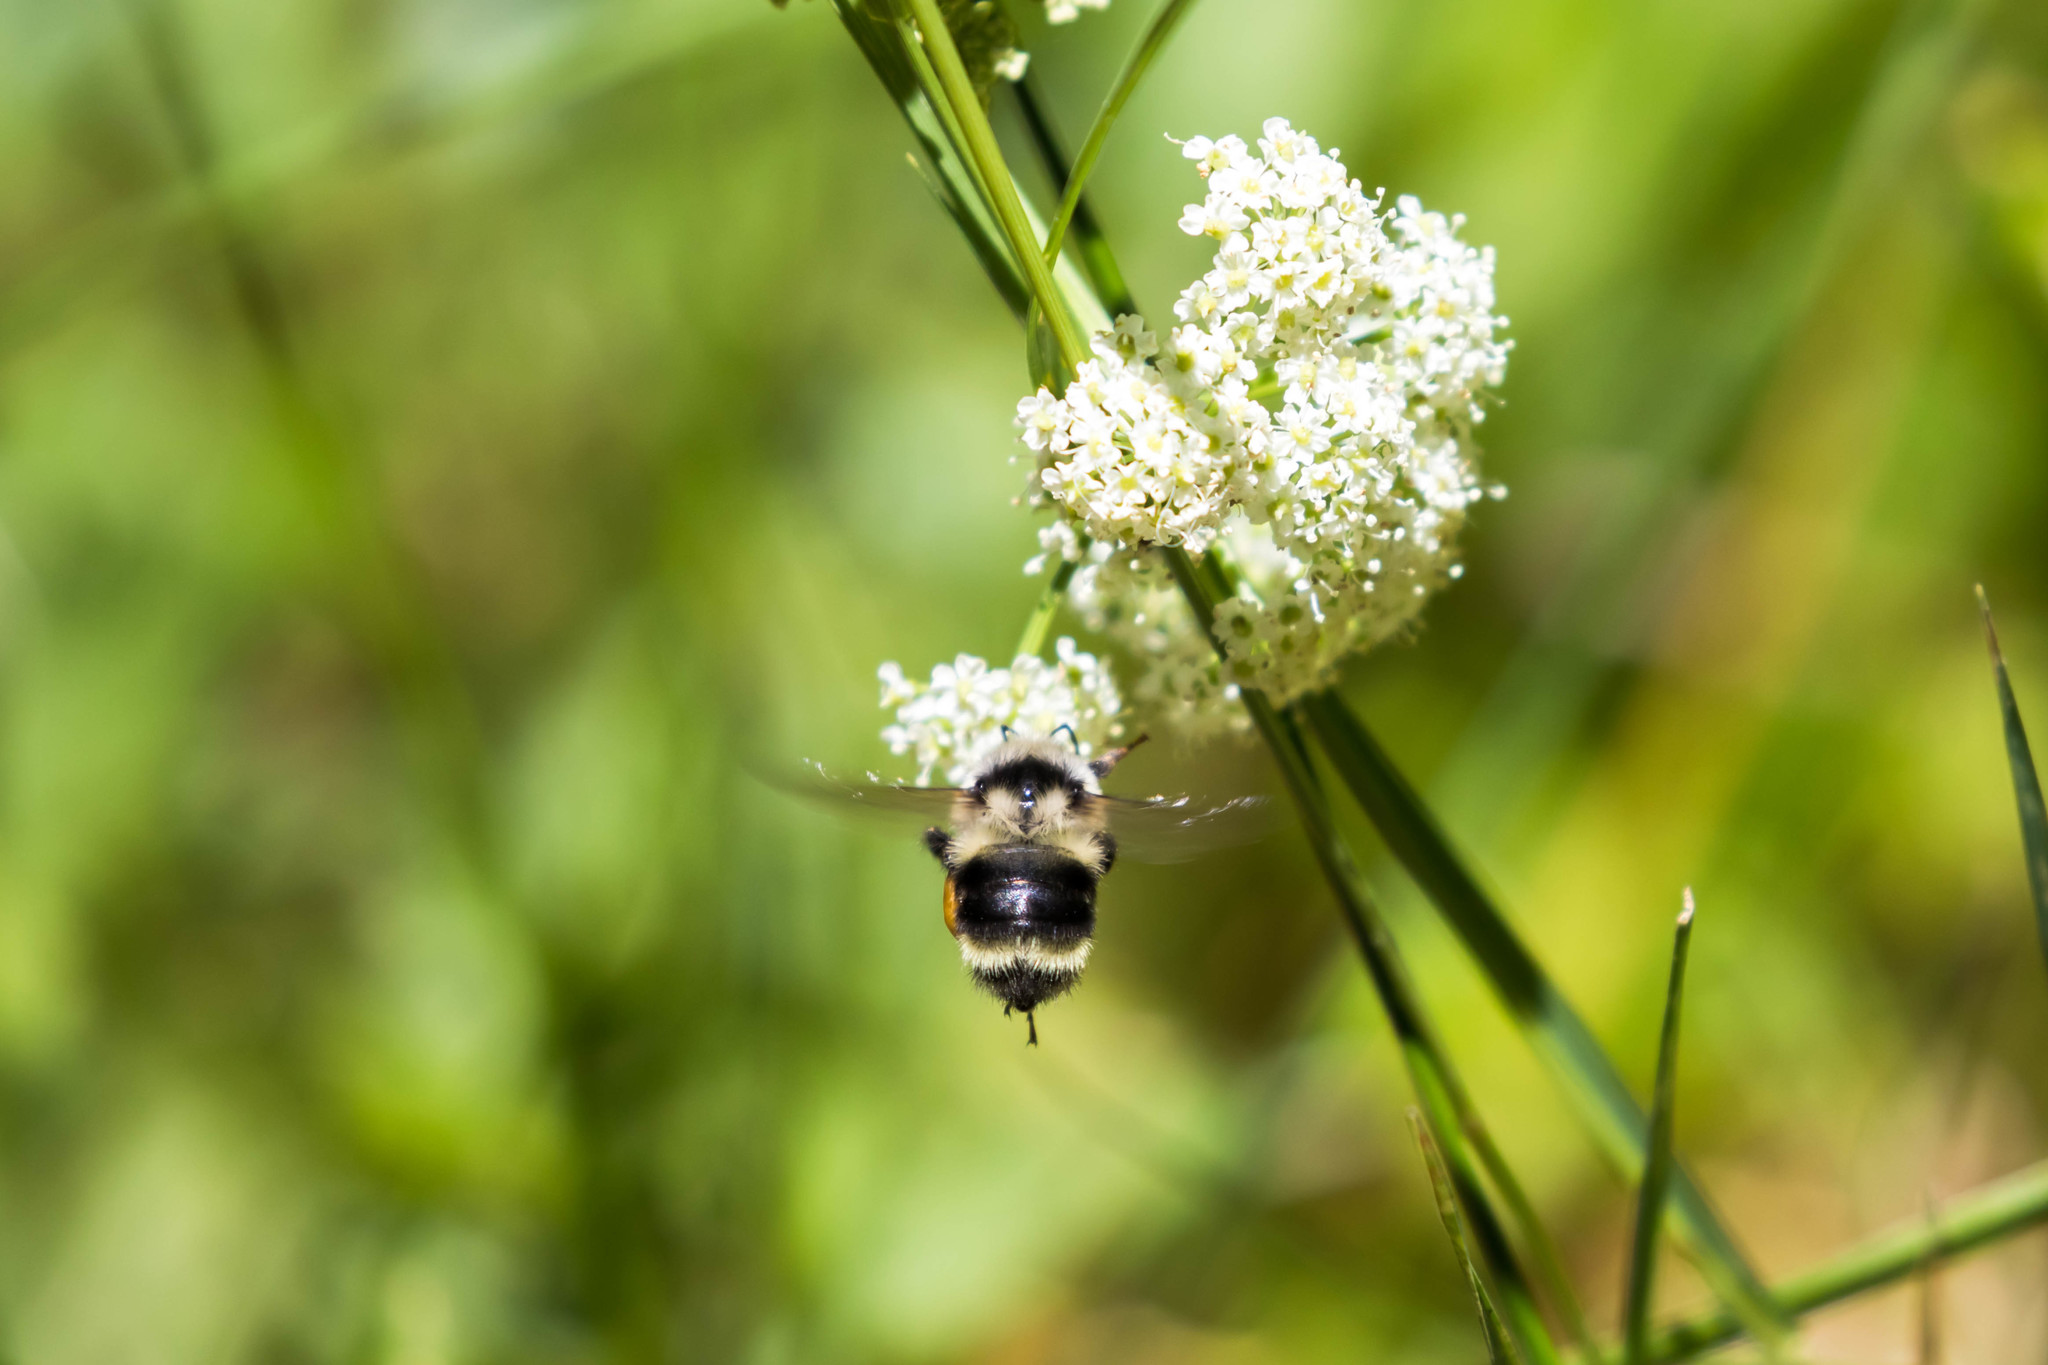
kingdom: Animalia
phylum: Arthropoda
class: Insecta
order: Hymenoptera
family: Apidae
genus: Bombus
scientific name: Bombus vancouverensis
